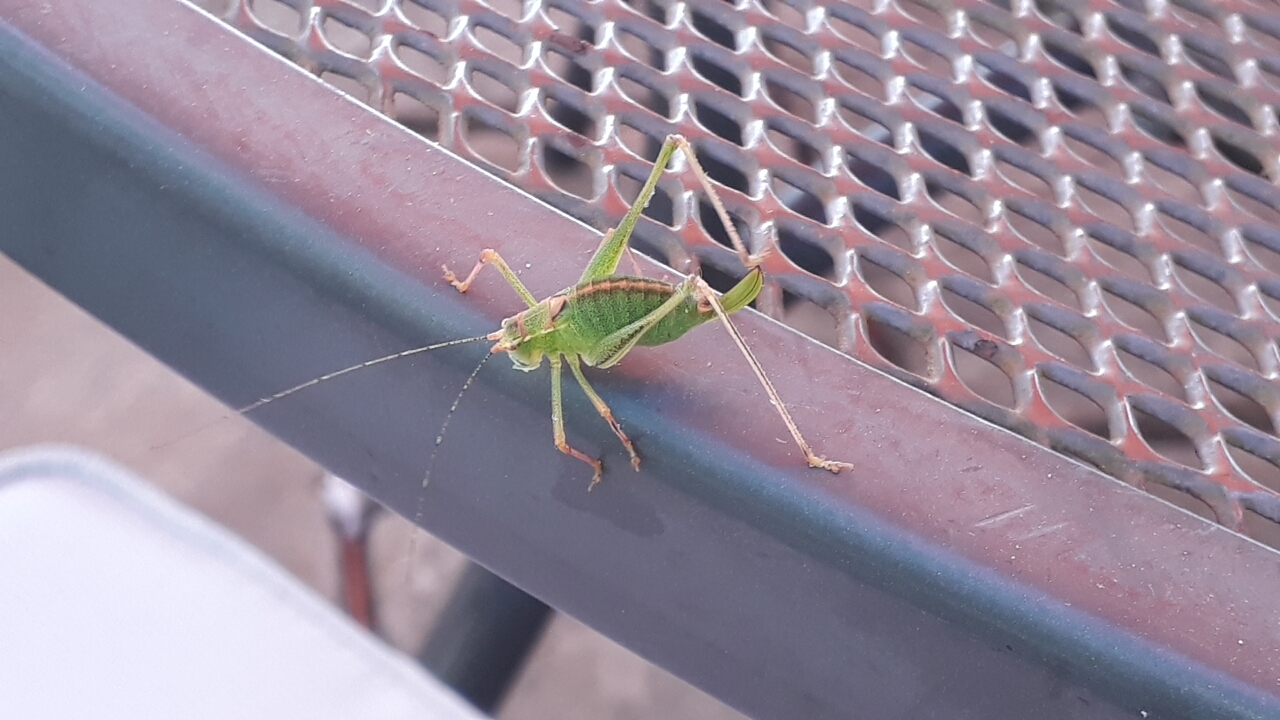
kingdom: Animalia
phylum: Arthropoda
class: Insecta
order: Orthoptera
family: Tettigoniidae
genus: Leptophyes
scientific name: Leptophyes punctatissima
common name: Speckled bush-cricket
